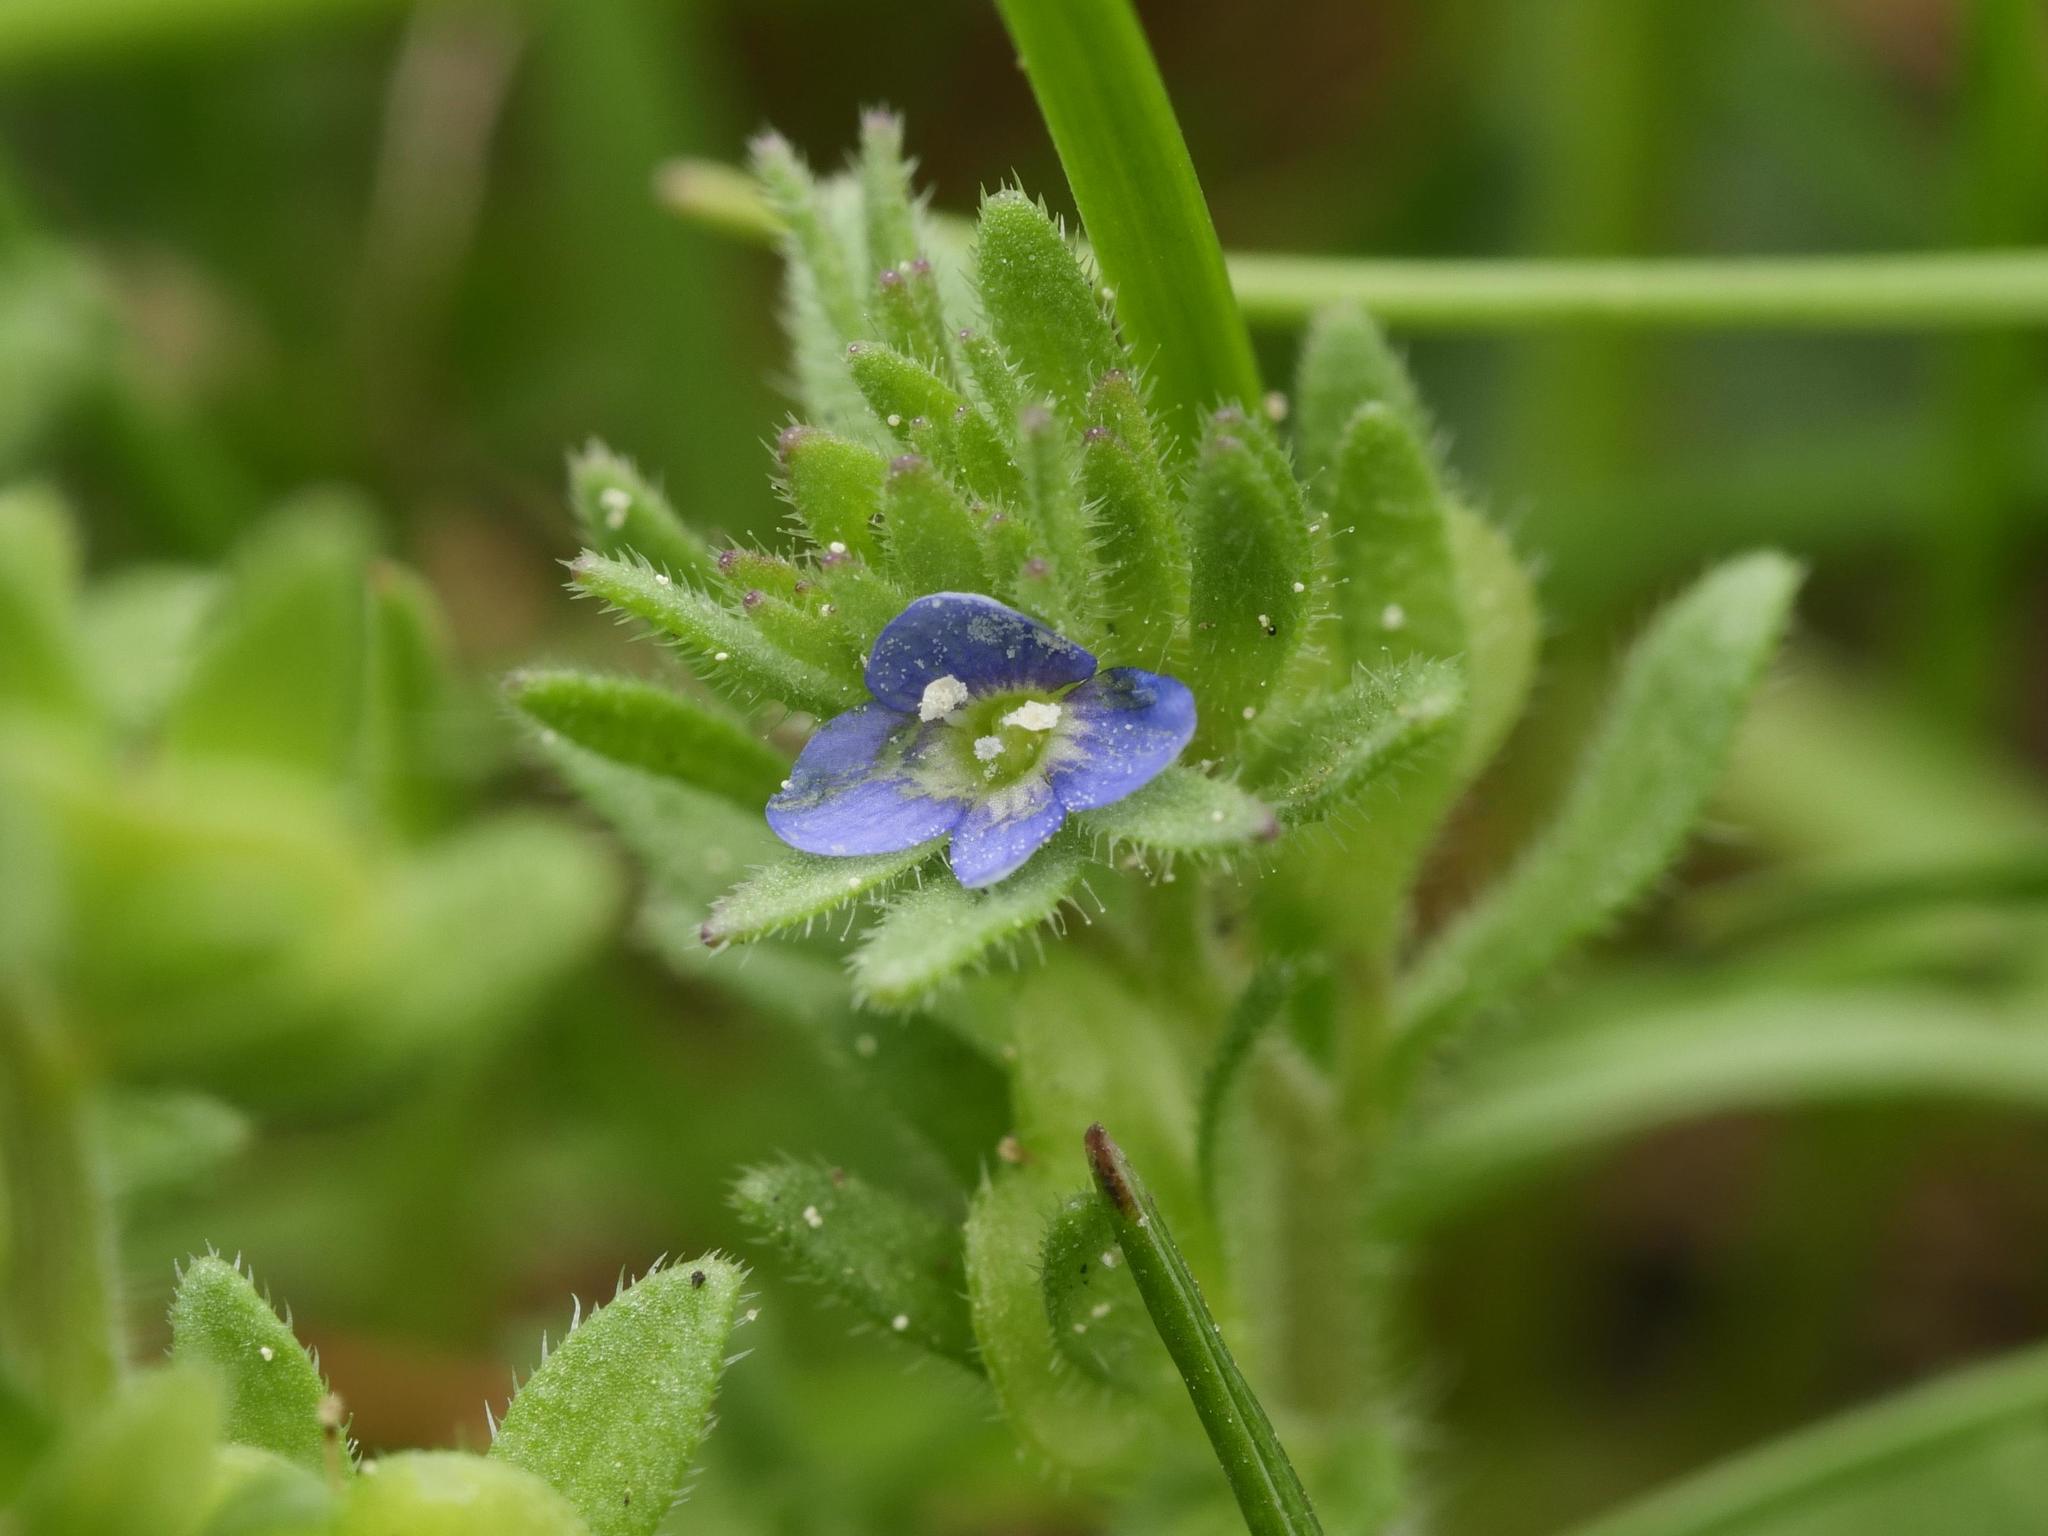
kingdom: Plantae
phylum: Tracheophyta
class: Magnoliopsida
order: Lamiales
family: Plantaginaceae
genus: Veronica
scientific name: Veronica arvensis
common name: Corn speedwell
